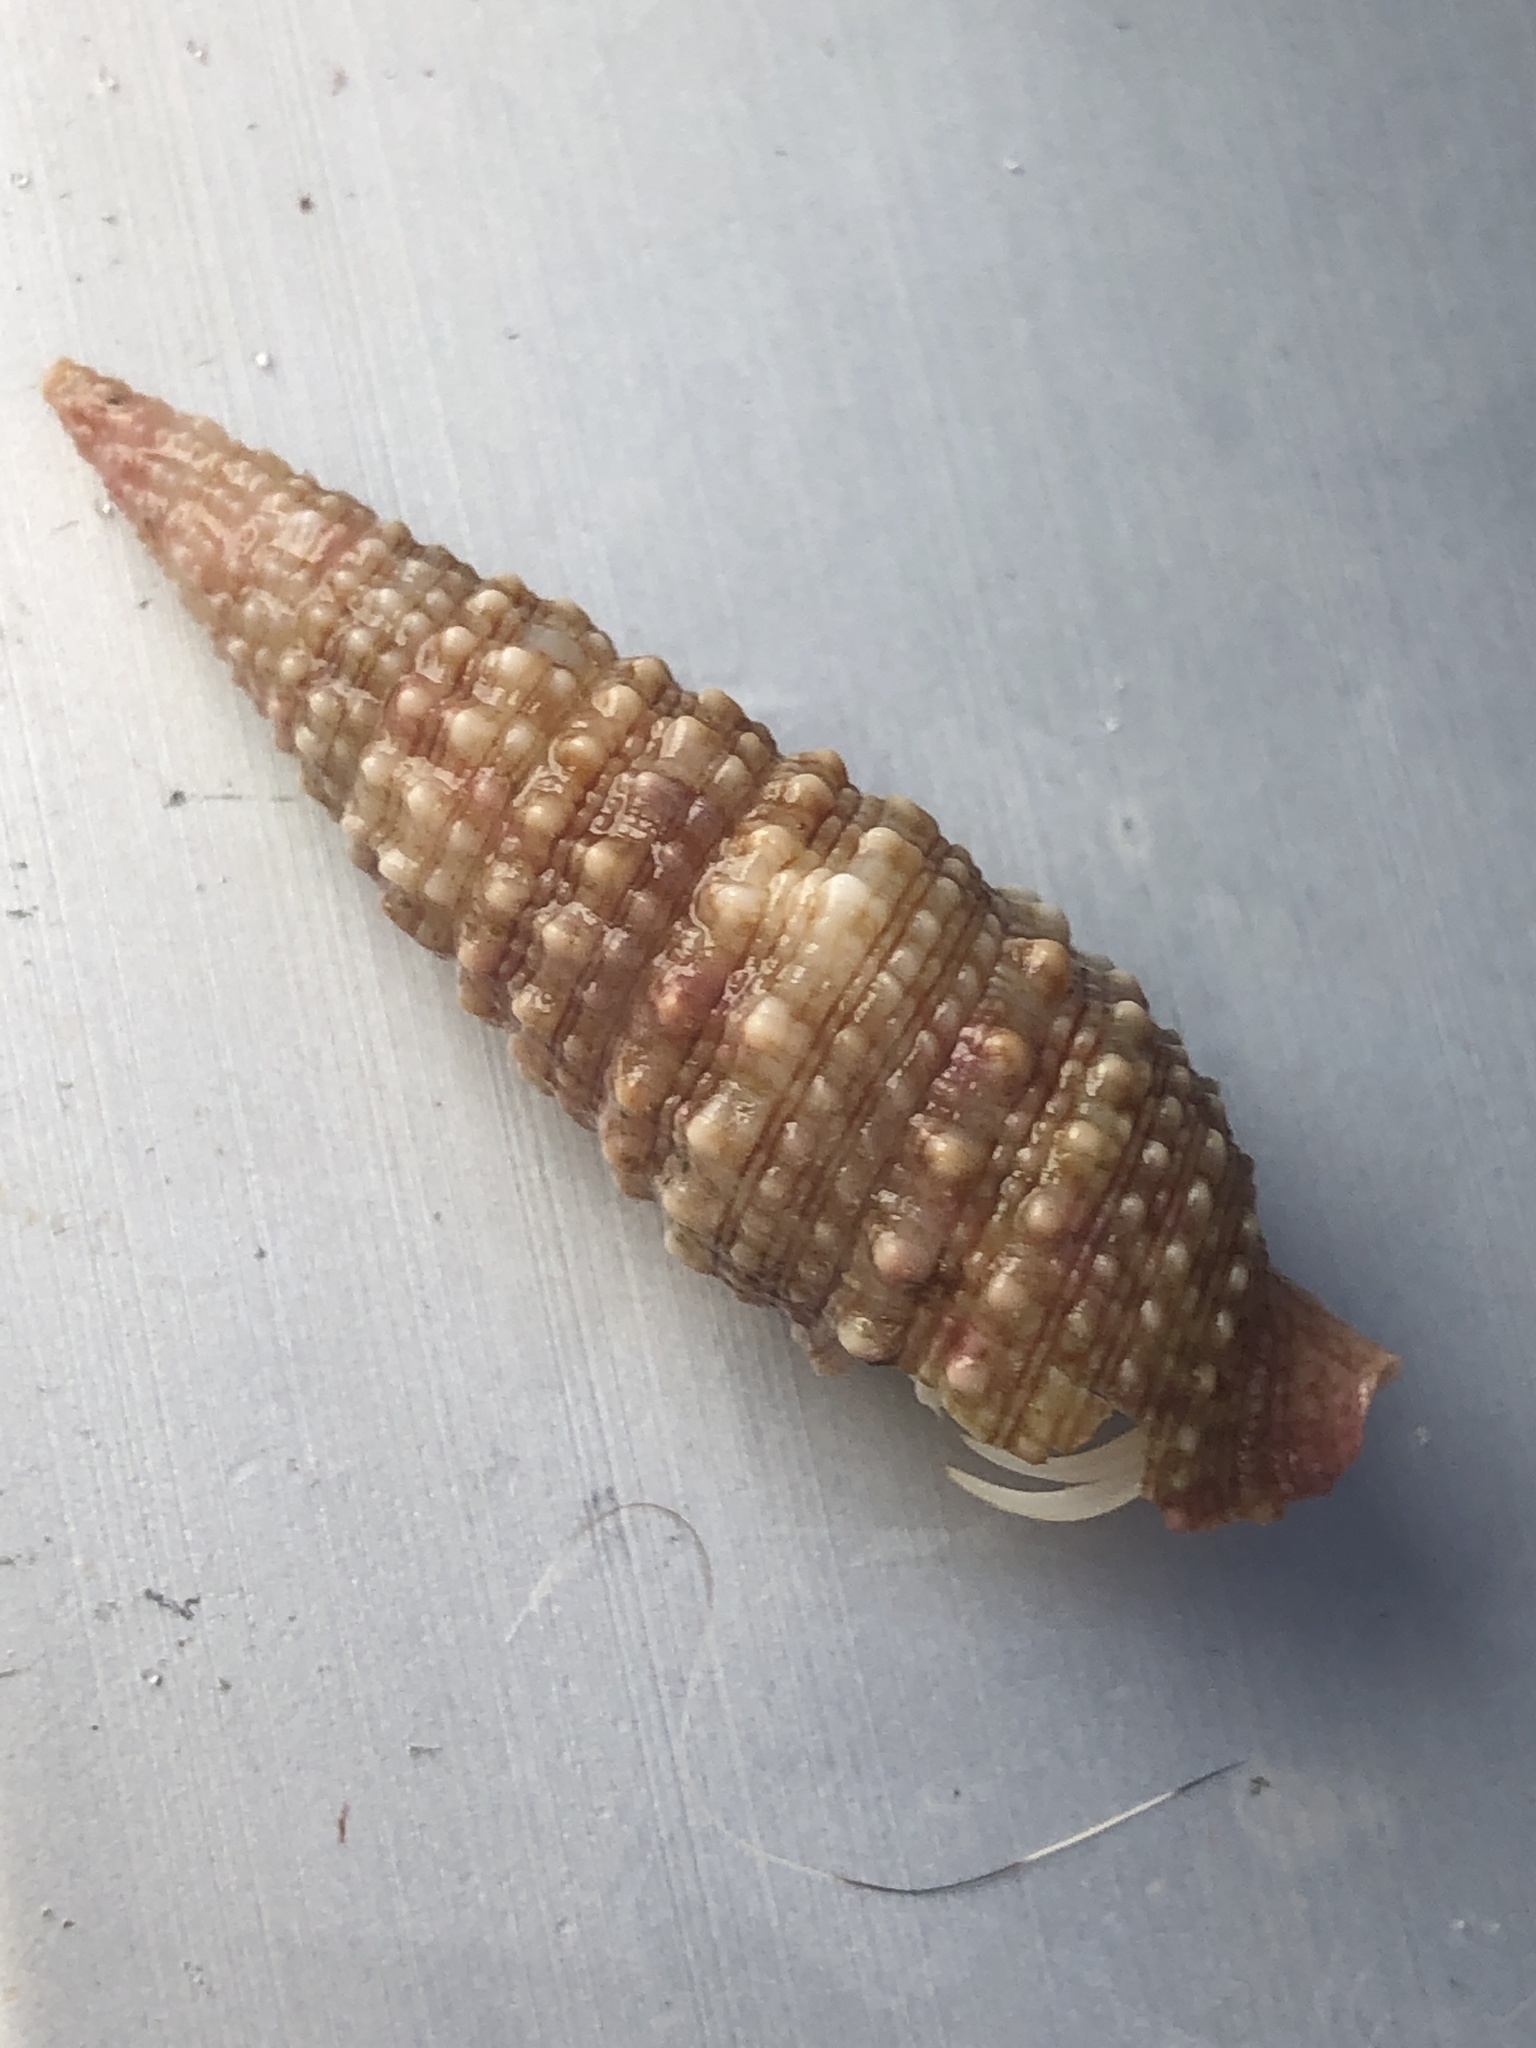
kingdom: Animalia
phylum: Mollusca
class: Gastropoda
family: Cerithiidae
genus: Cerithium
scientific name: Cerithium atratum
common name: Dark cerith
